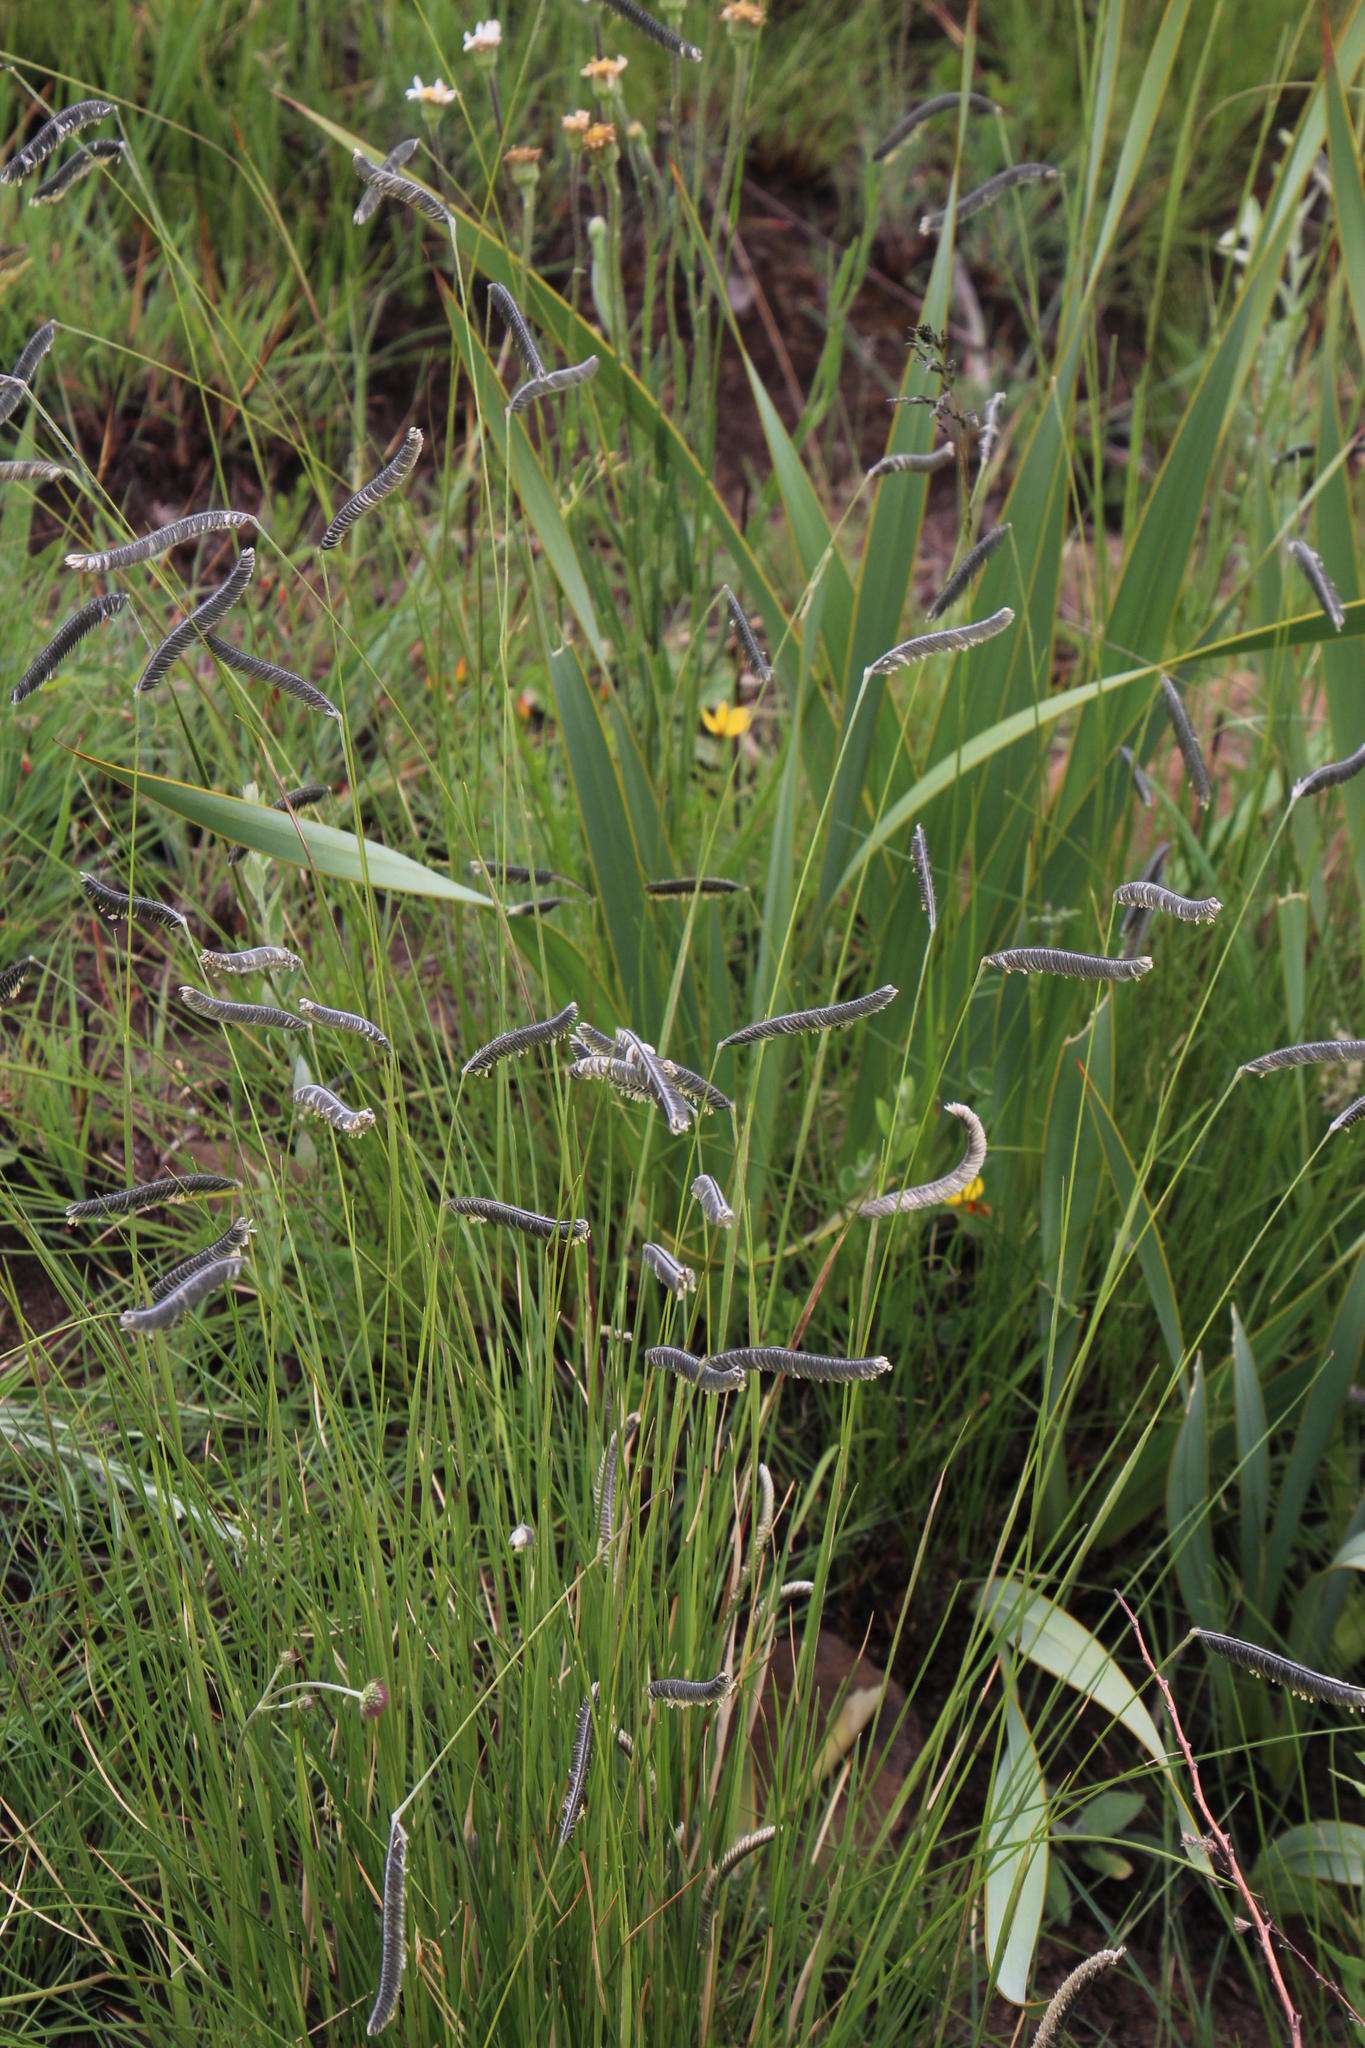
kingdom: Plantae
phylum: Tracheophyta
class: Liliopsida
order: Poales
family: Poaceae
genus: Harpochloa
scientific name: Harpochloa falx
